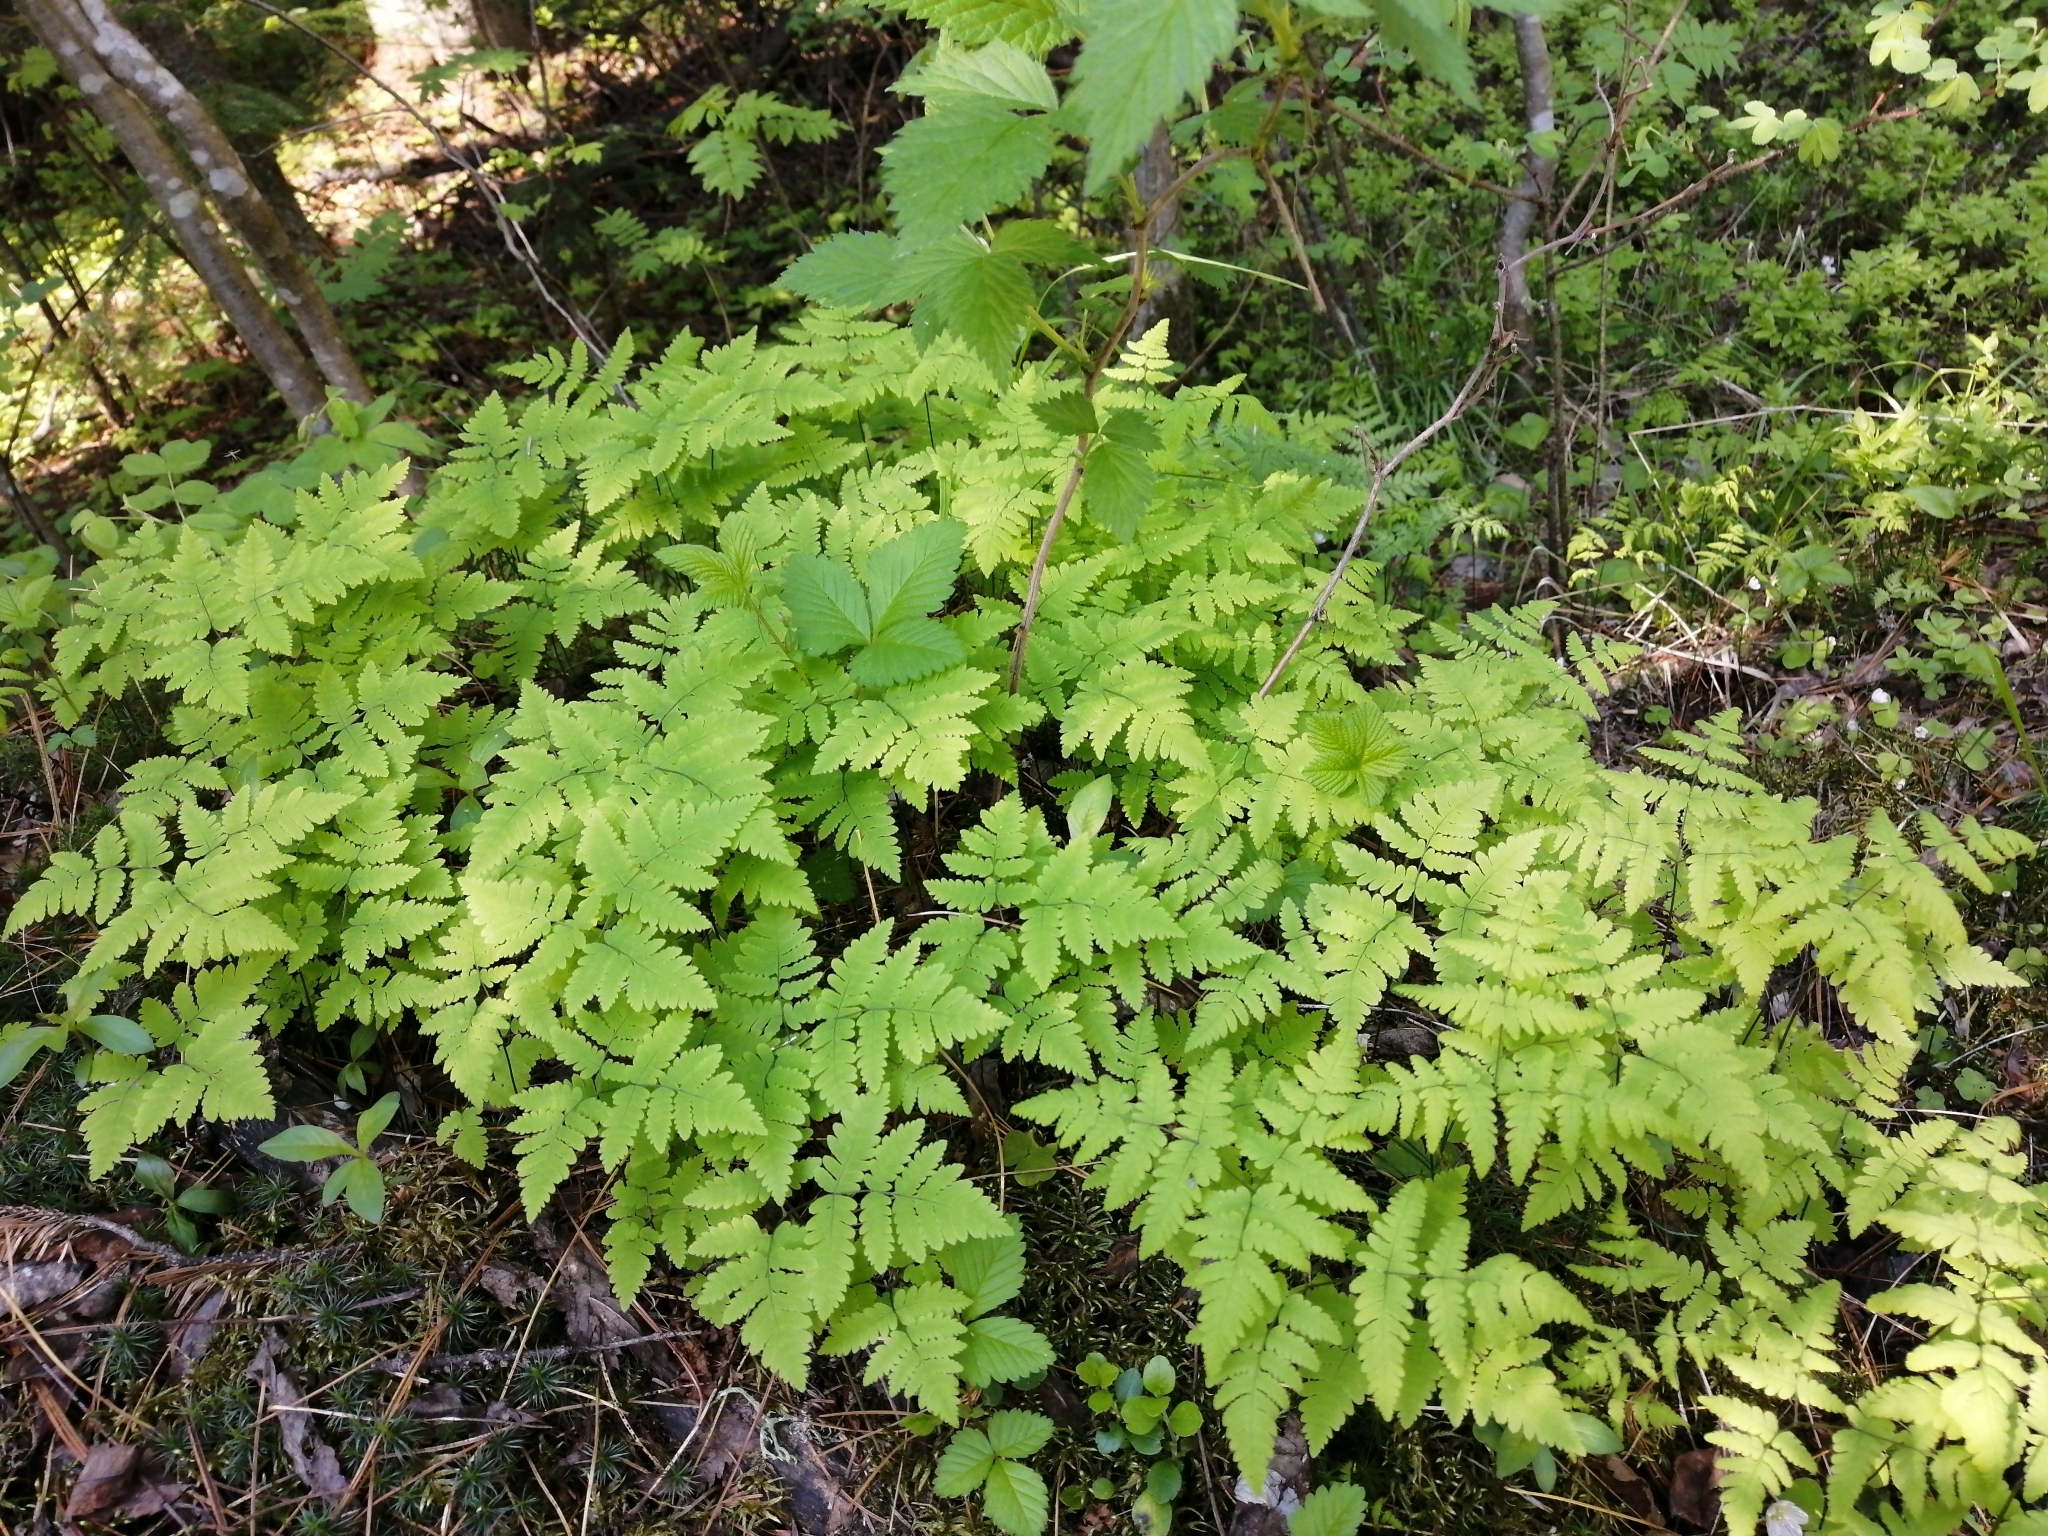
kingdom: Plantae
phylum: Tracheophyta
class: Polypodiopsida
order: Polypodiales
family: Cystopteridaceae
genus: Gymnocarpium
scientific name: Gymnocarpium dryopteris
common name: Oak fern
